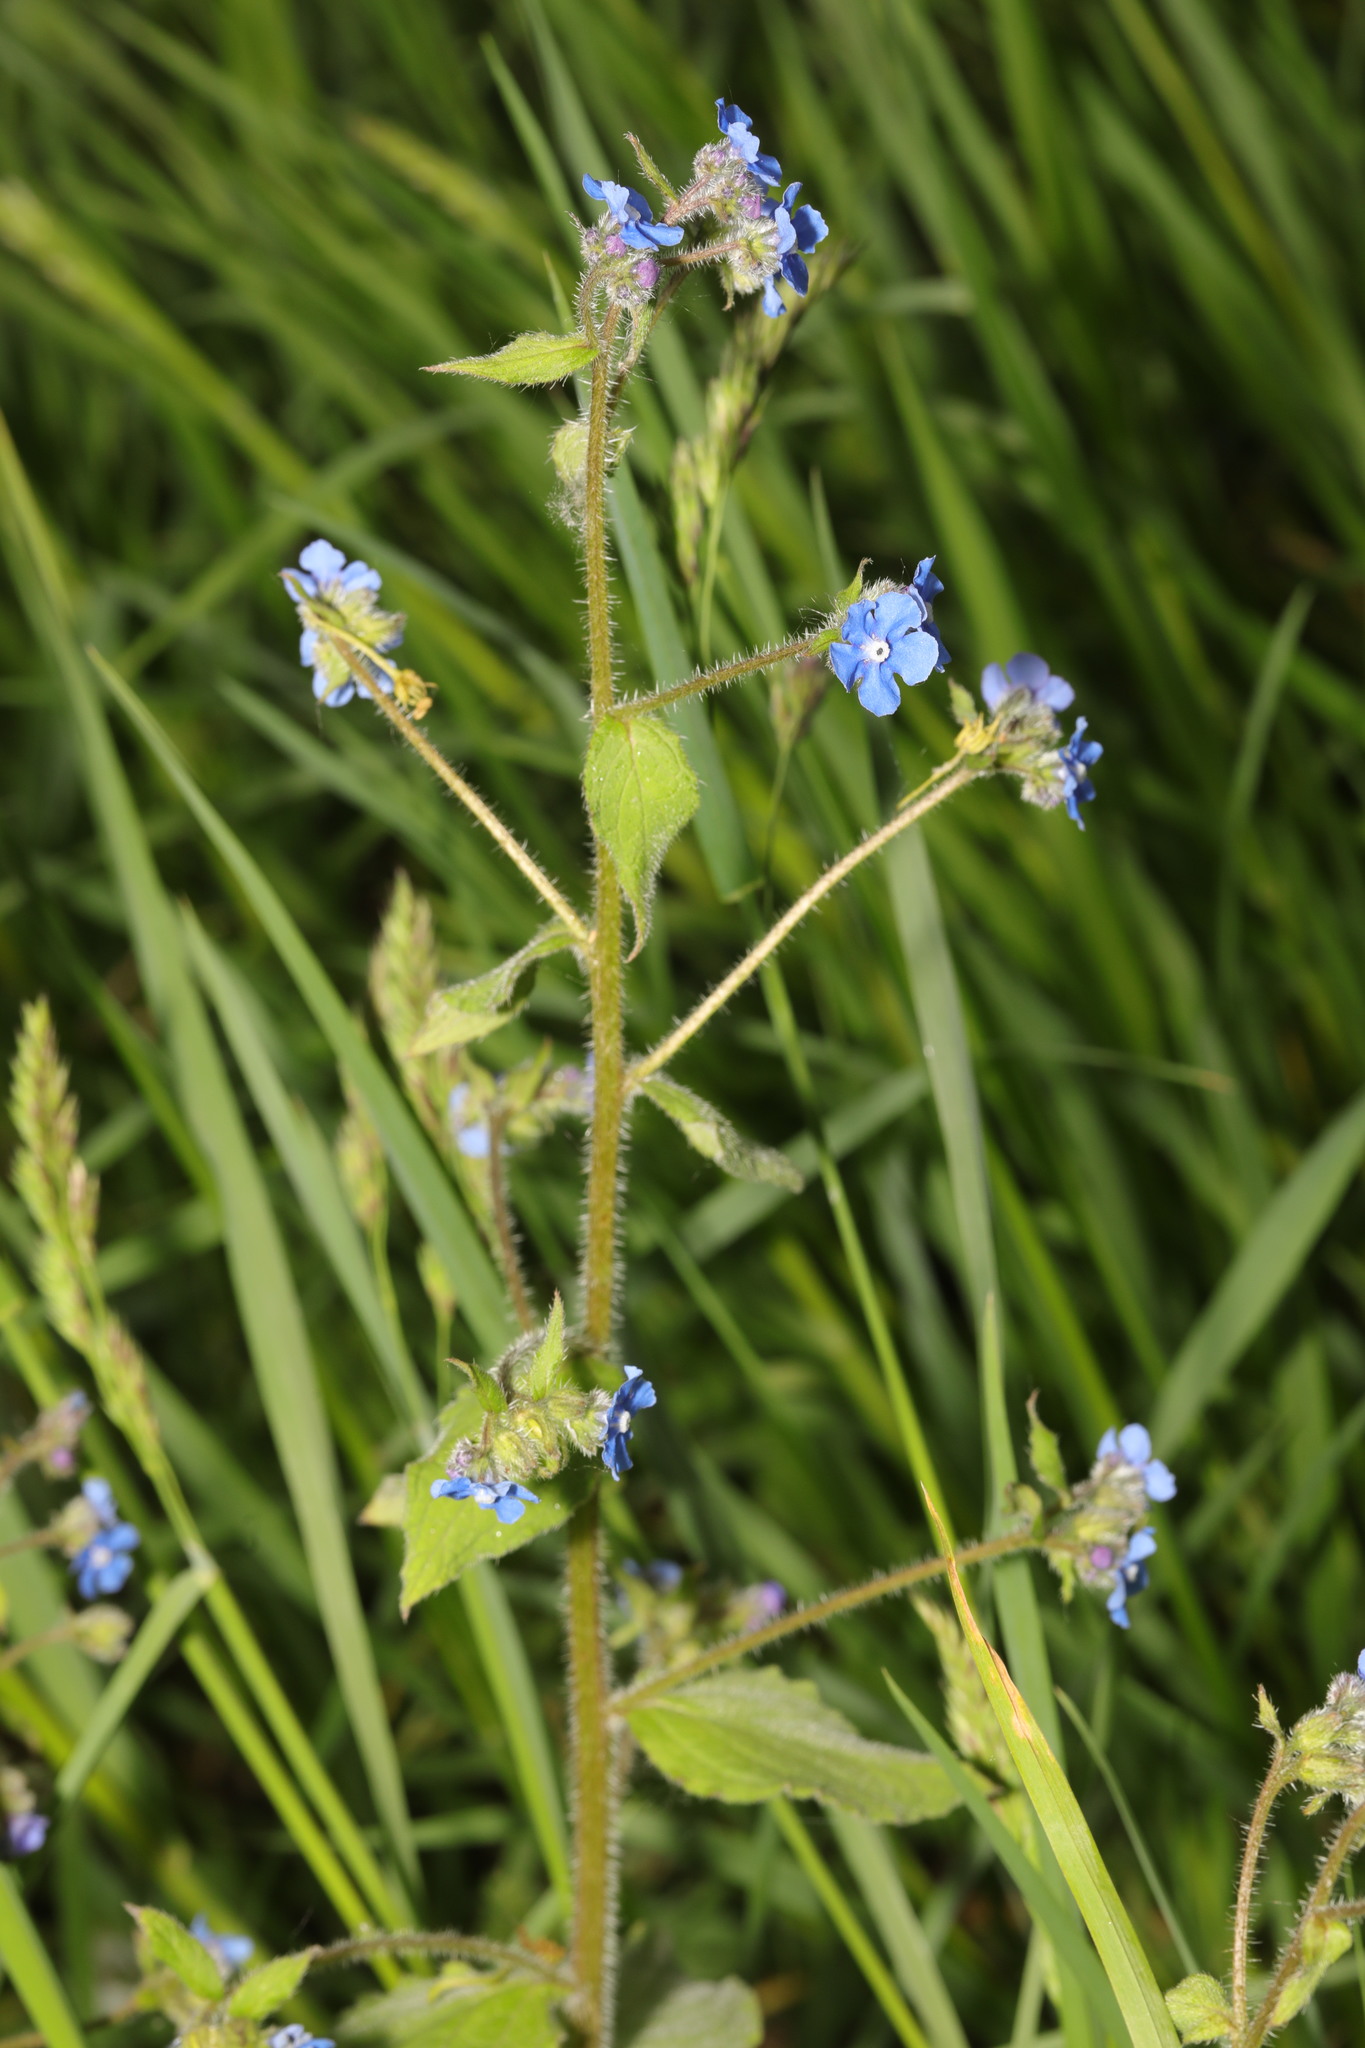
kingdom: Plantae
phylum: Tracheophyta
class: Magnoliopsida
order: Boraginales
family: Boraginaceae
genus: Pentaglottis
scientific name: Pentaglottis sempervirens
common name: Green alkanet
